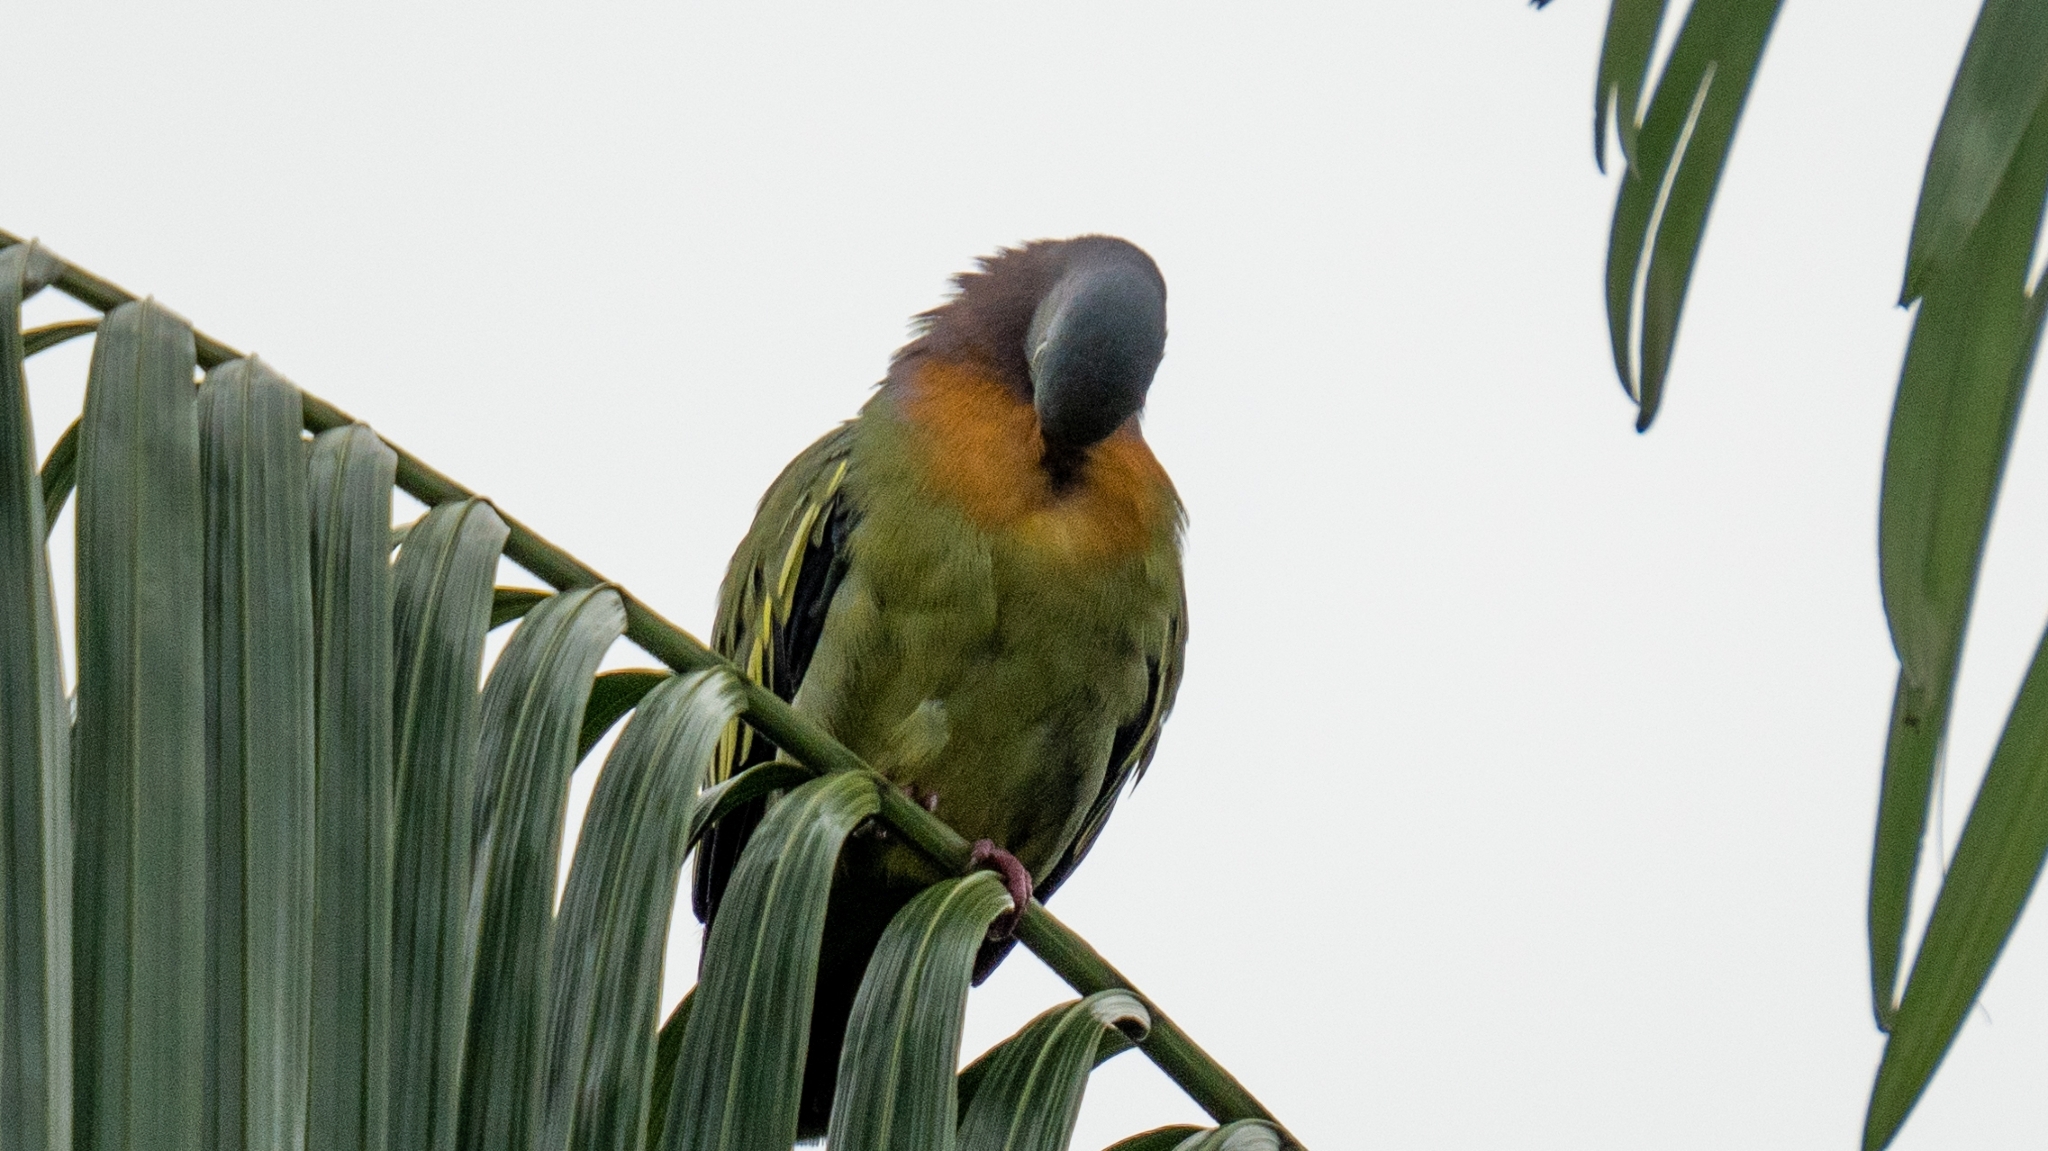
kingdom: Animalia
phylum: Chordata
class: Aves
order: Columbiformes
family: Columbidae
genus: Treron
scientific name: Treron vernans
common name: Pink-necked green pigeon
